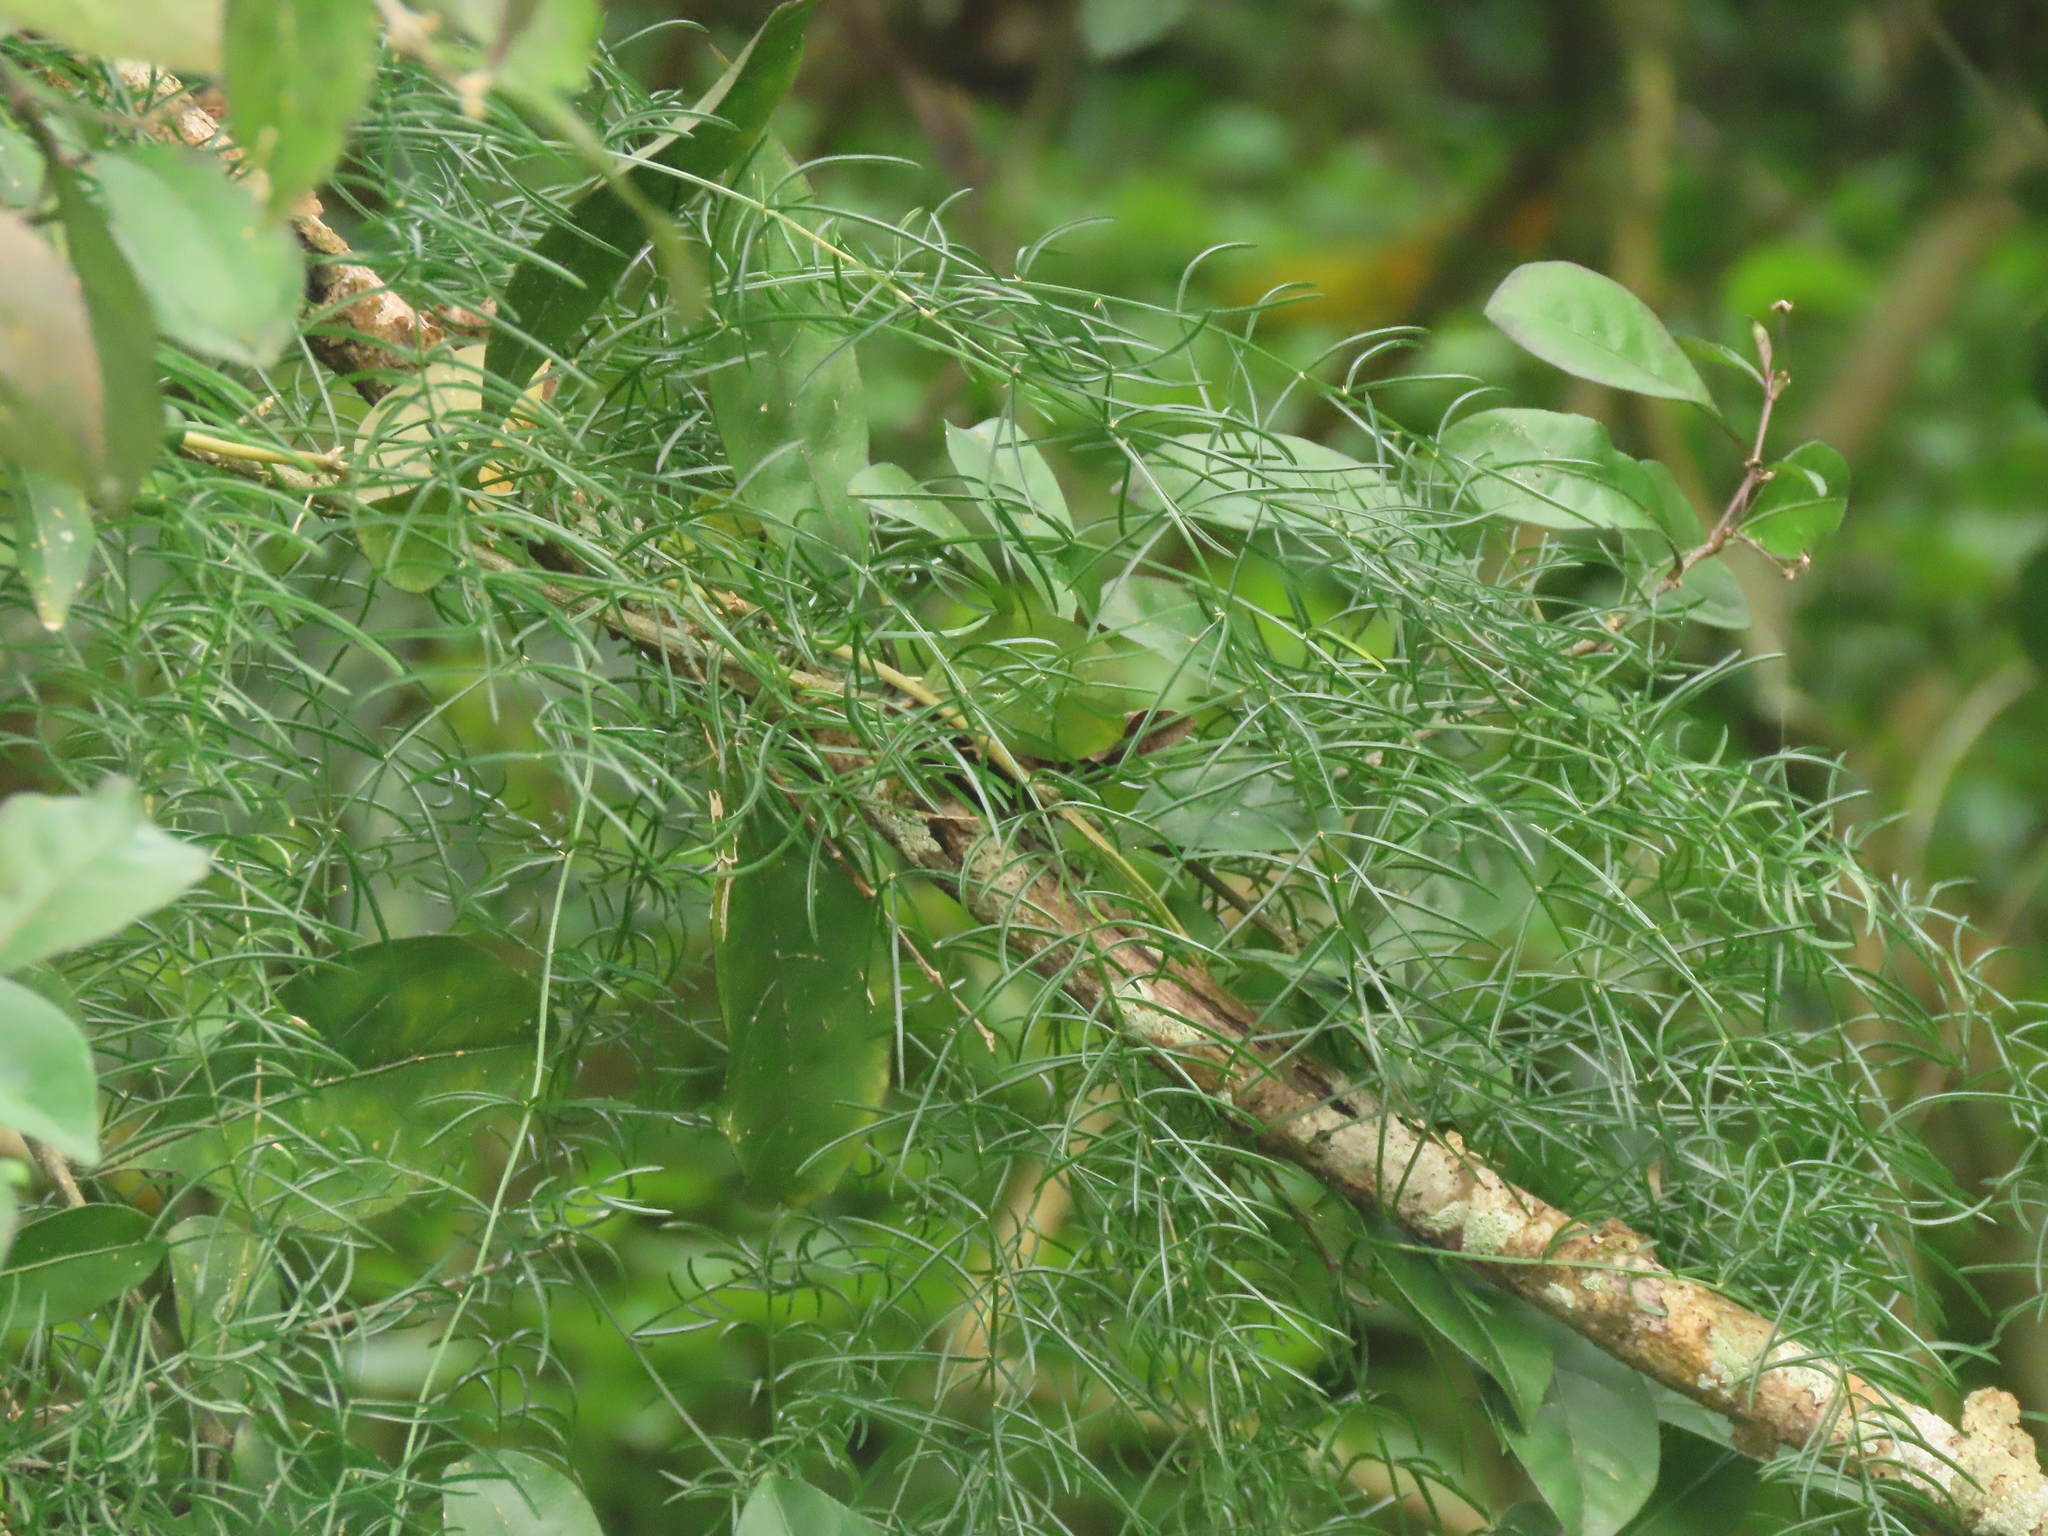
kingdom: Plantae
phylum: Tracheophyta
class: Liliopsida
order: Asparagales
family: Asparagaceae
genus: Asparagus
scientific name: Asparagus cochinchinensis
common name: Chinese asparagus
